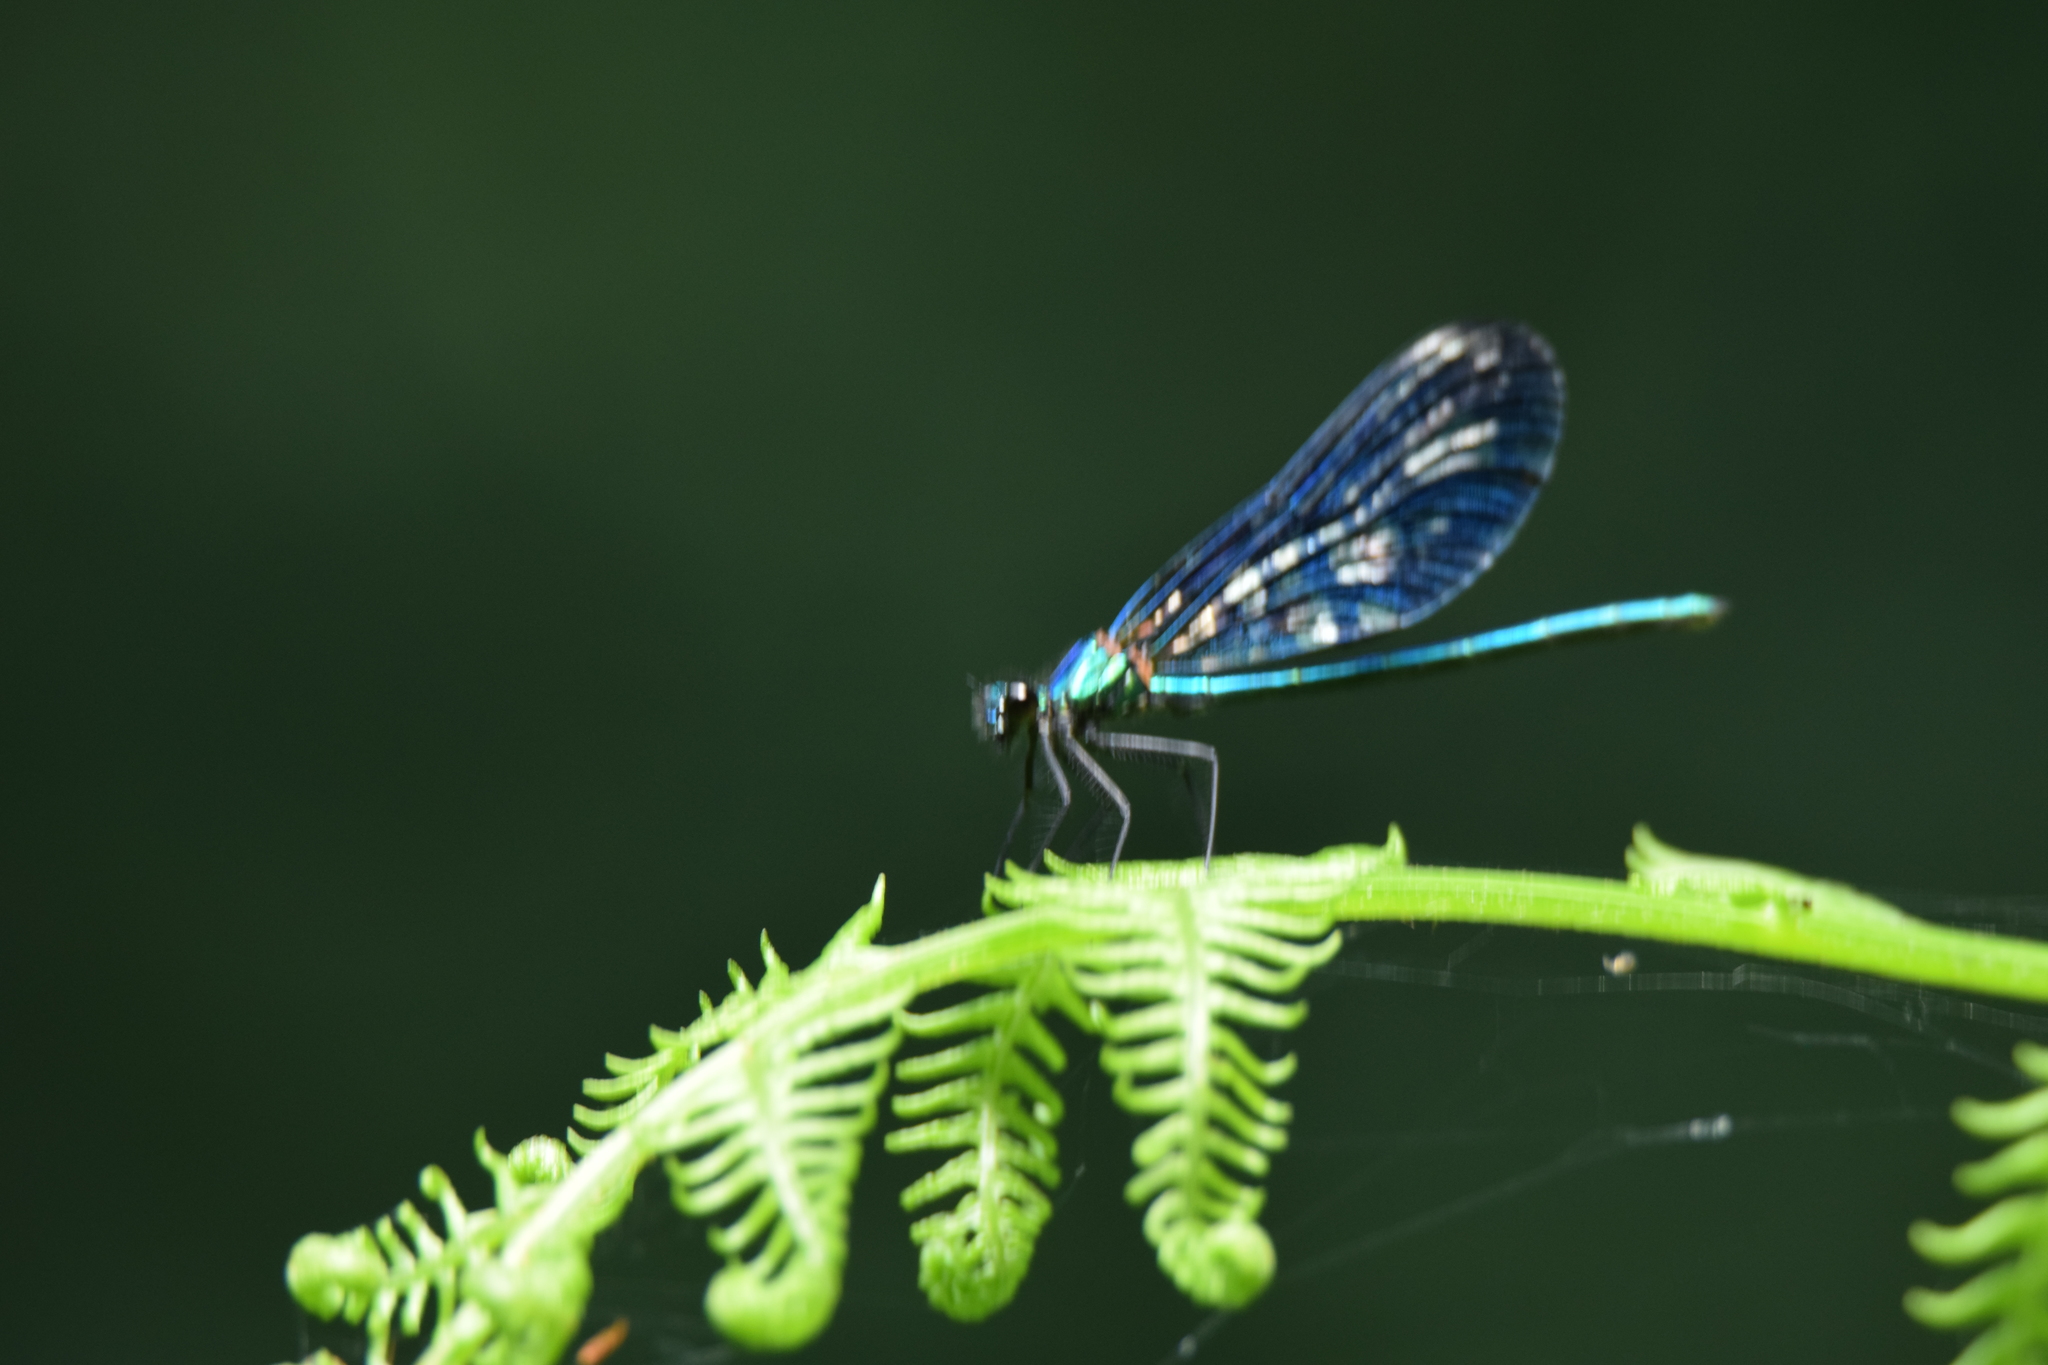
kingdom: Animalia
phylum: Arthropoda
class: Insecta
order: Odonata
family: Calopterygidae
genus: Calopteryx
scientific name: Calopteryx virgo
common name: Beautiful demoiselle
